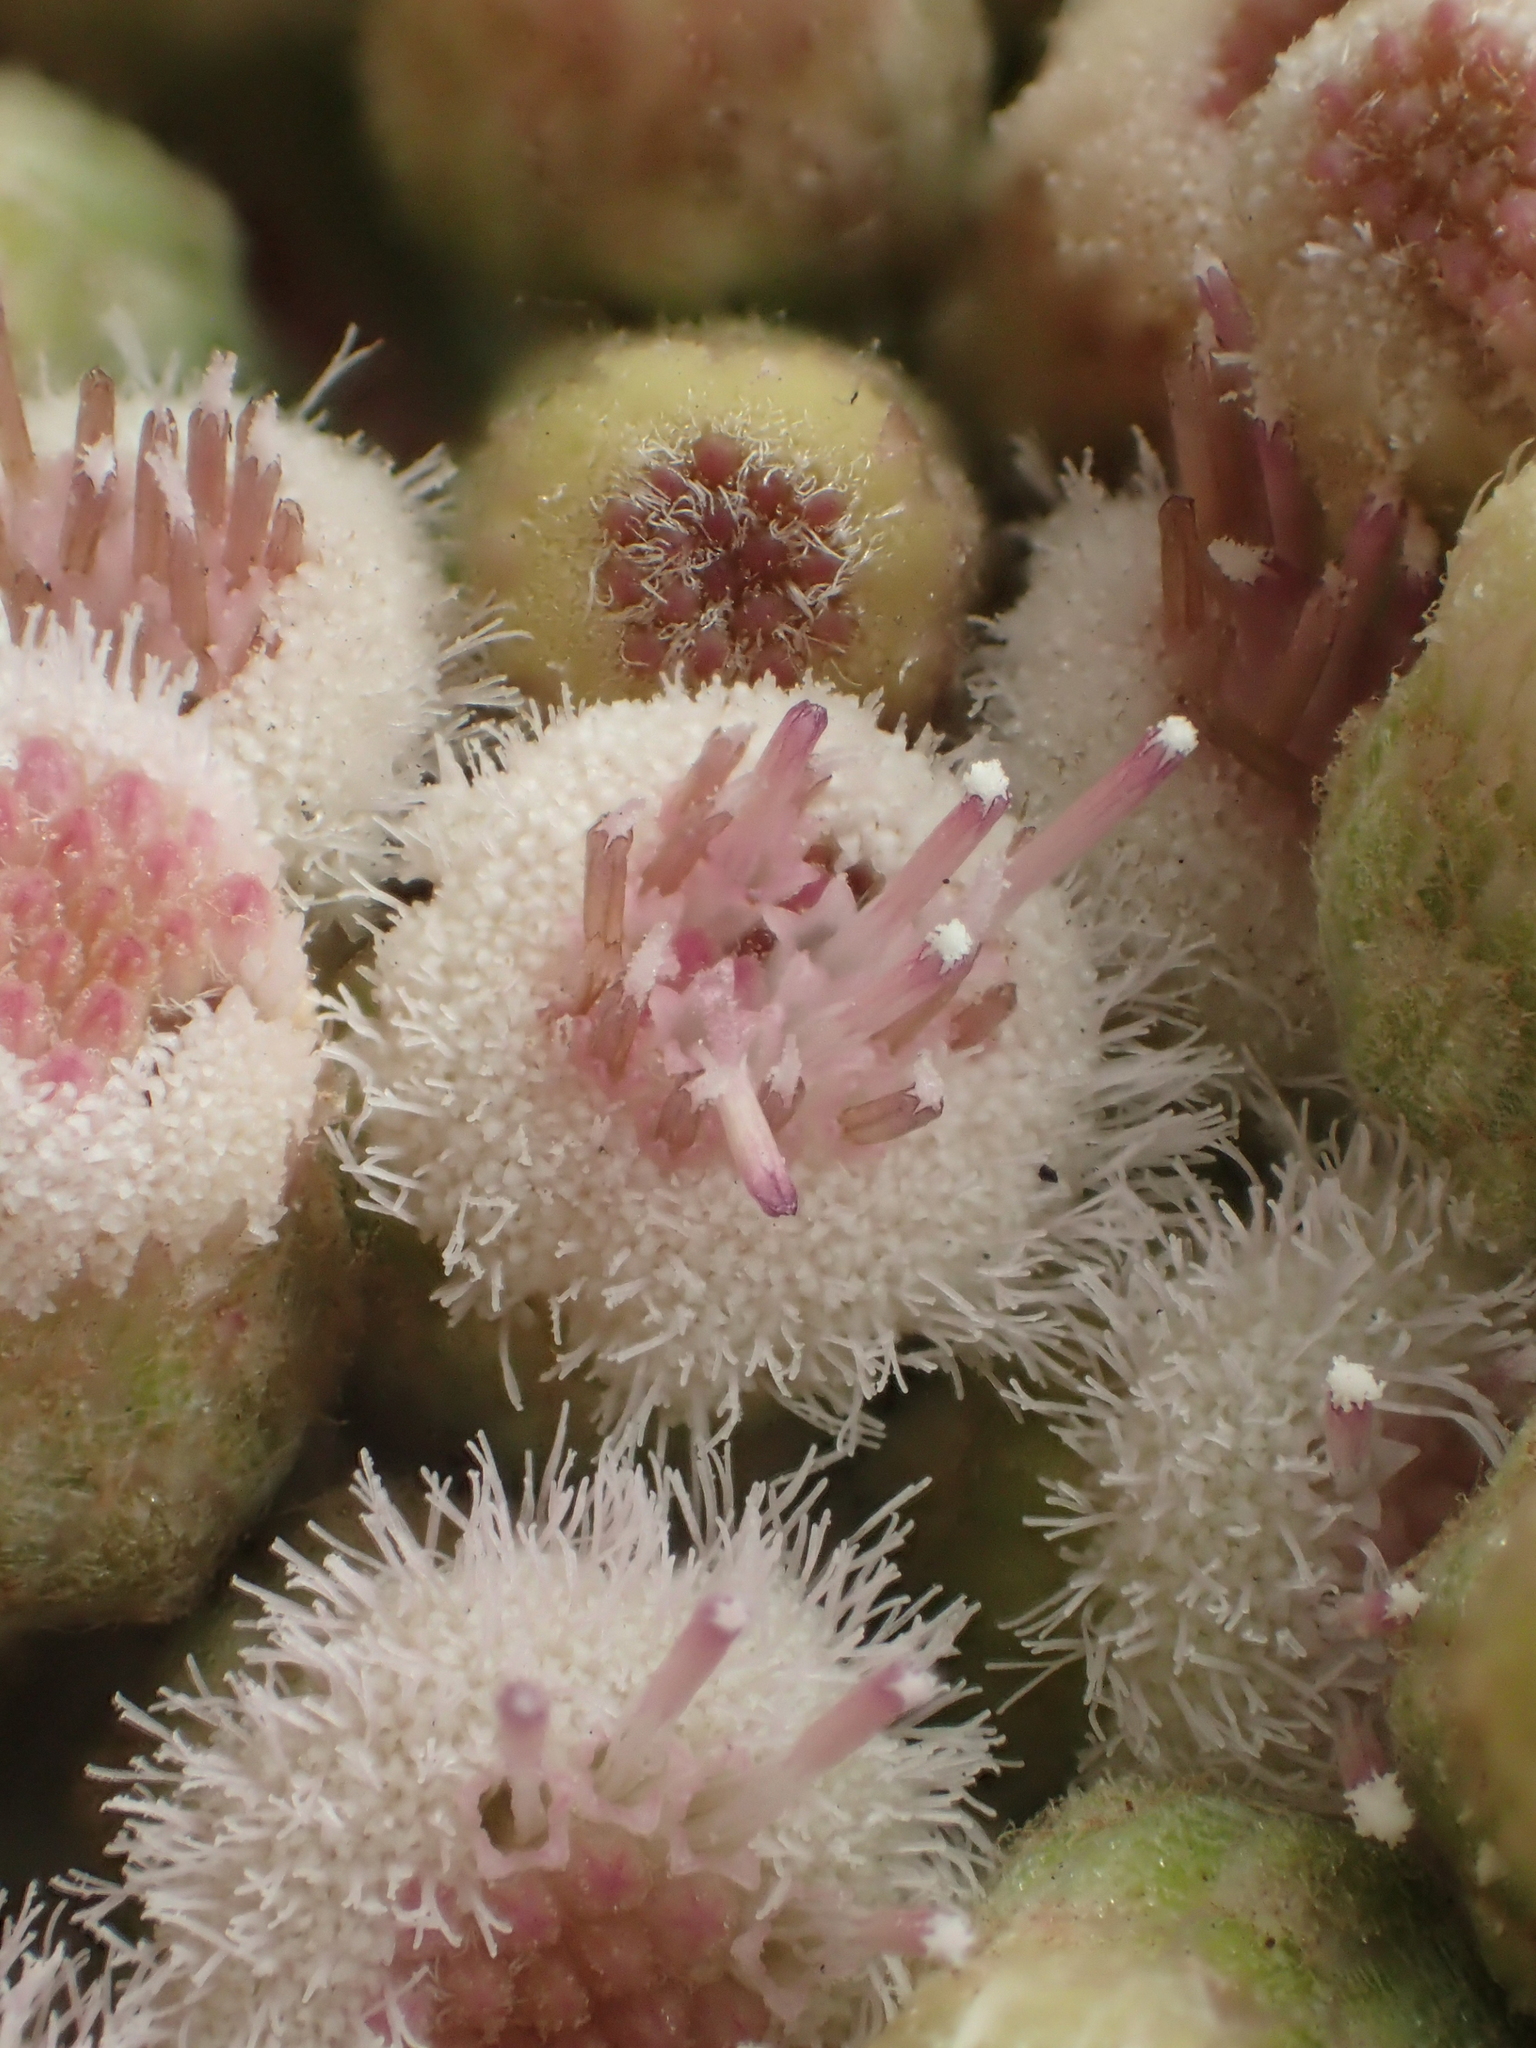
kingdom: Plantae
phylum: Tracheophyta
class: Magnoliopsida
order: Asterales
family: Asteraceae
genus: Pluchea
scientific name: Pluchea carolinensis
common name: Marsh fleabane
